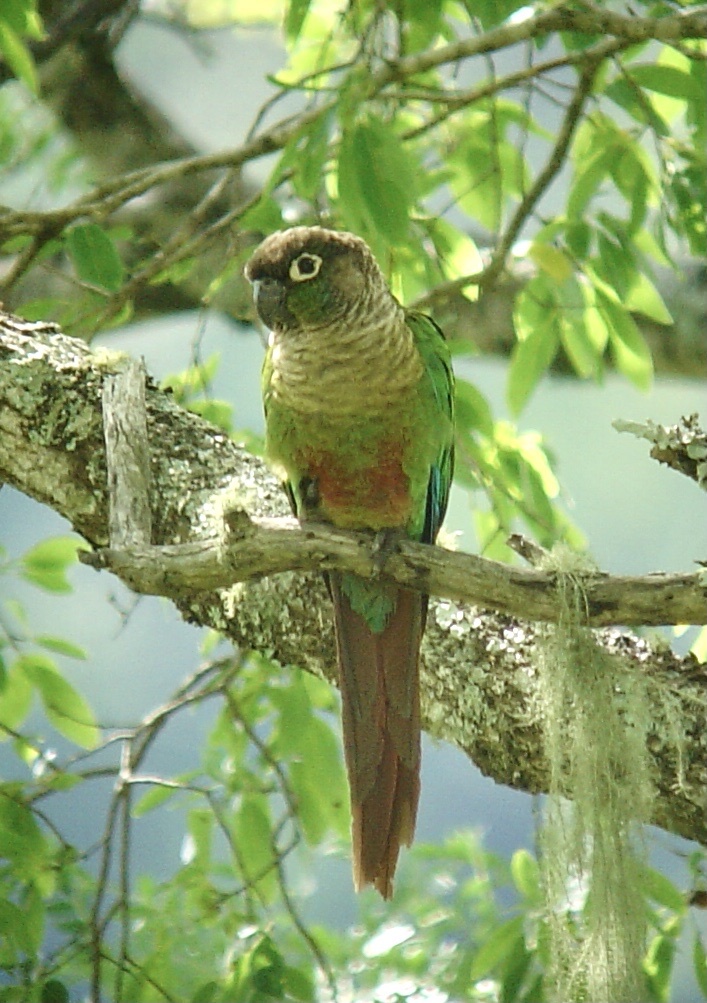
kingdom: Animalia
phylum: Chordata
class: Aves
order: Psittaciformes
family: Psittacidae
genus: Pyrrhura
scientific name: Pyrrhura molinae
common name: Green-cheeked parakeet
